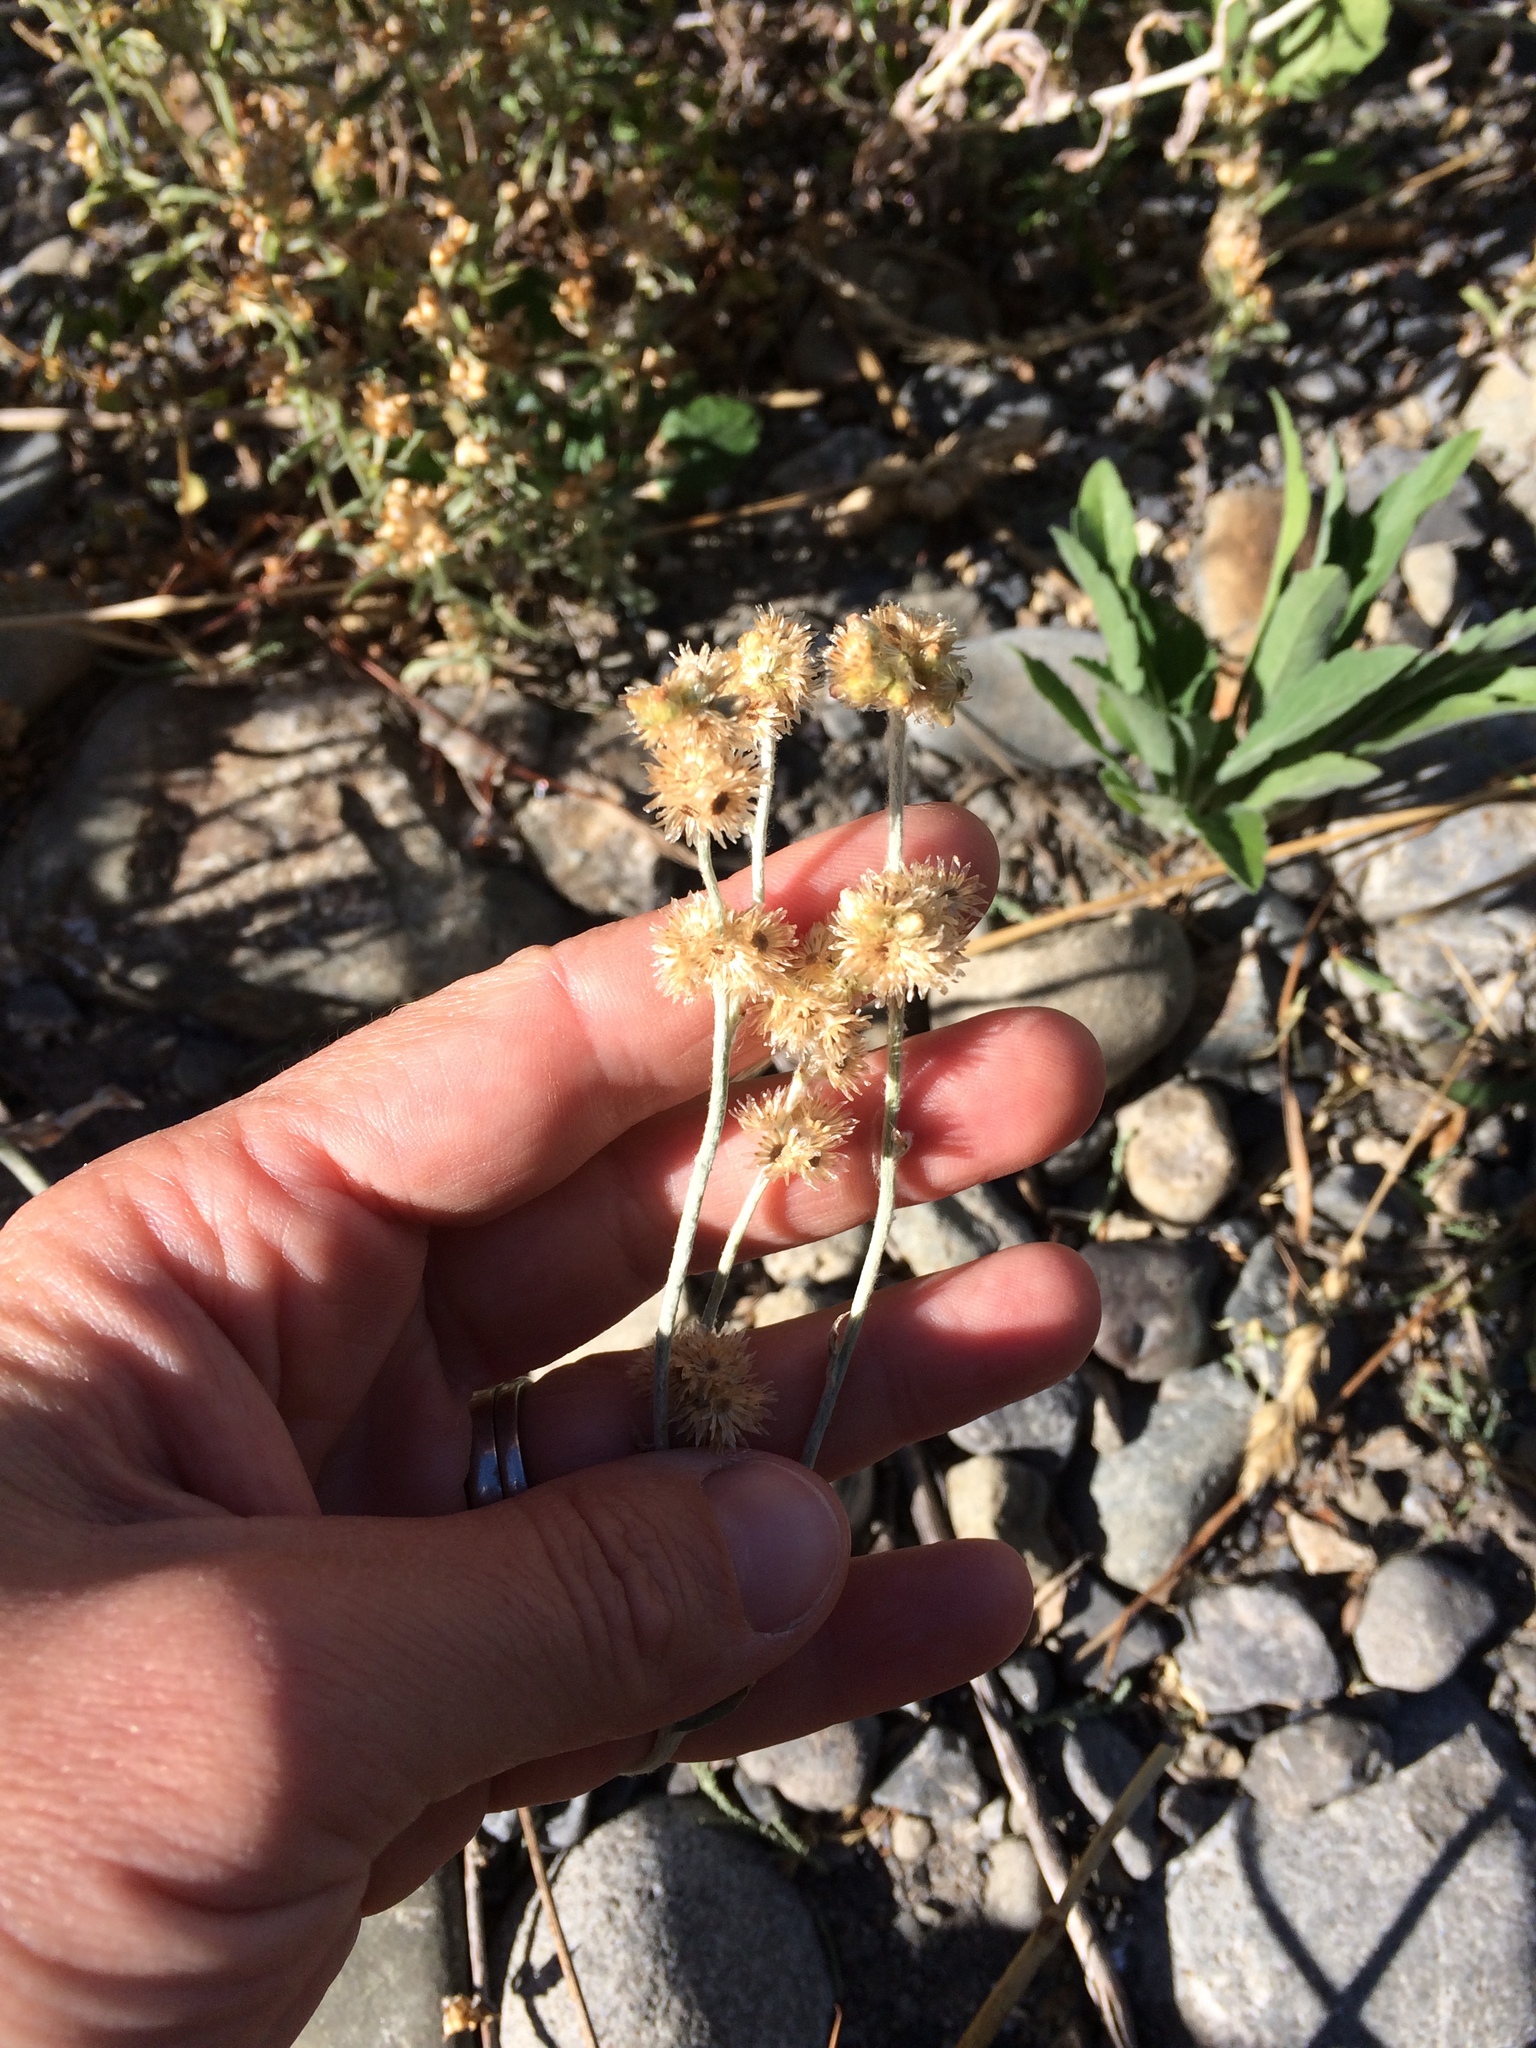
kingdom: Plantae
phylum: Tracheophyta
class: Magnoliopsida
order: Asterales
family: Asteraceae
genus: Helichrysum
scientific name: Helichrysum luteoalbum
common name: Daisy
